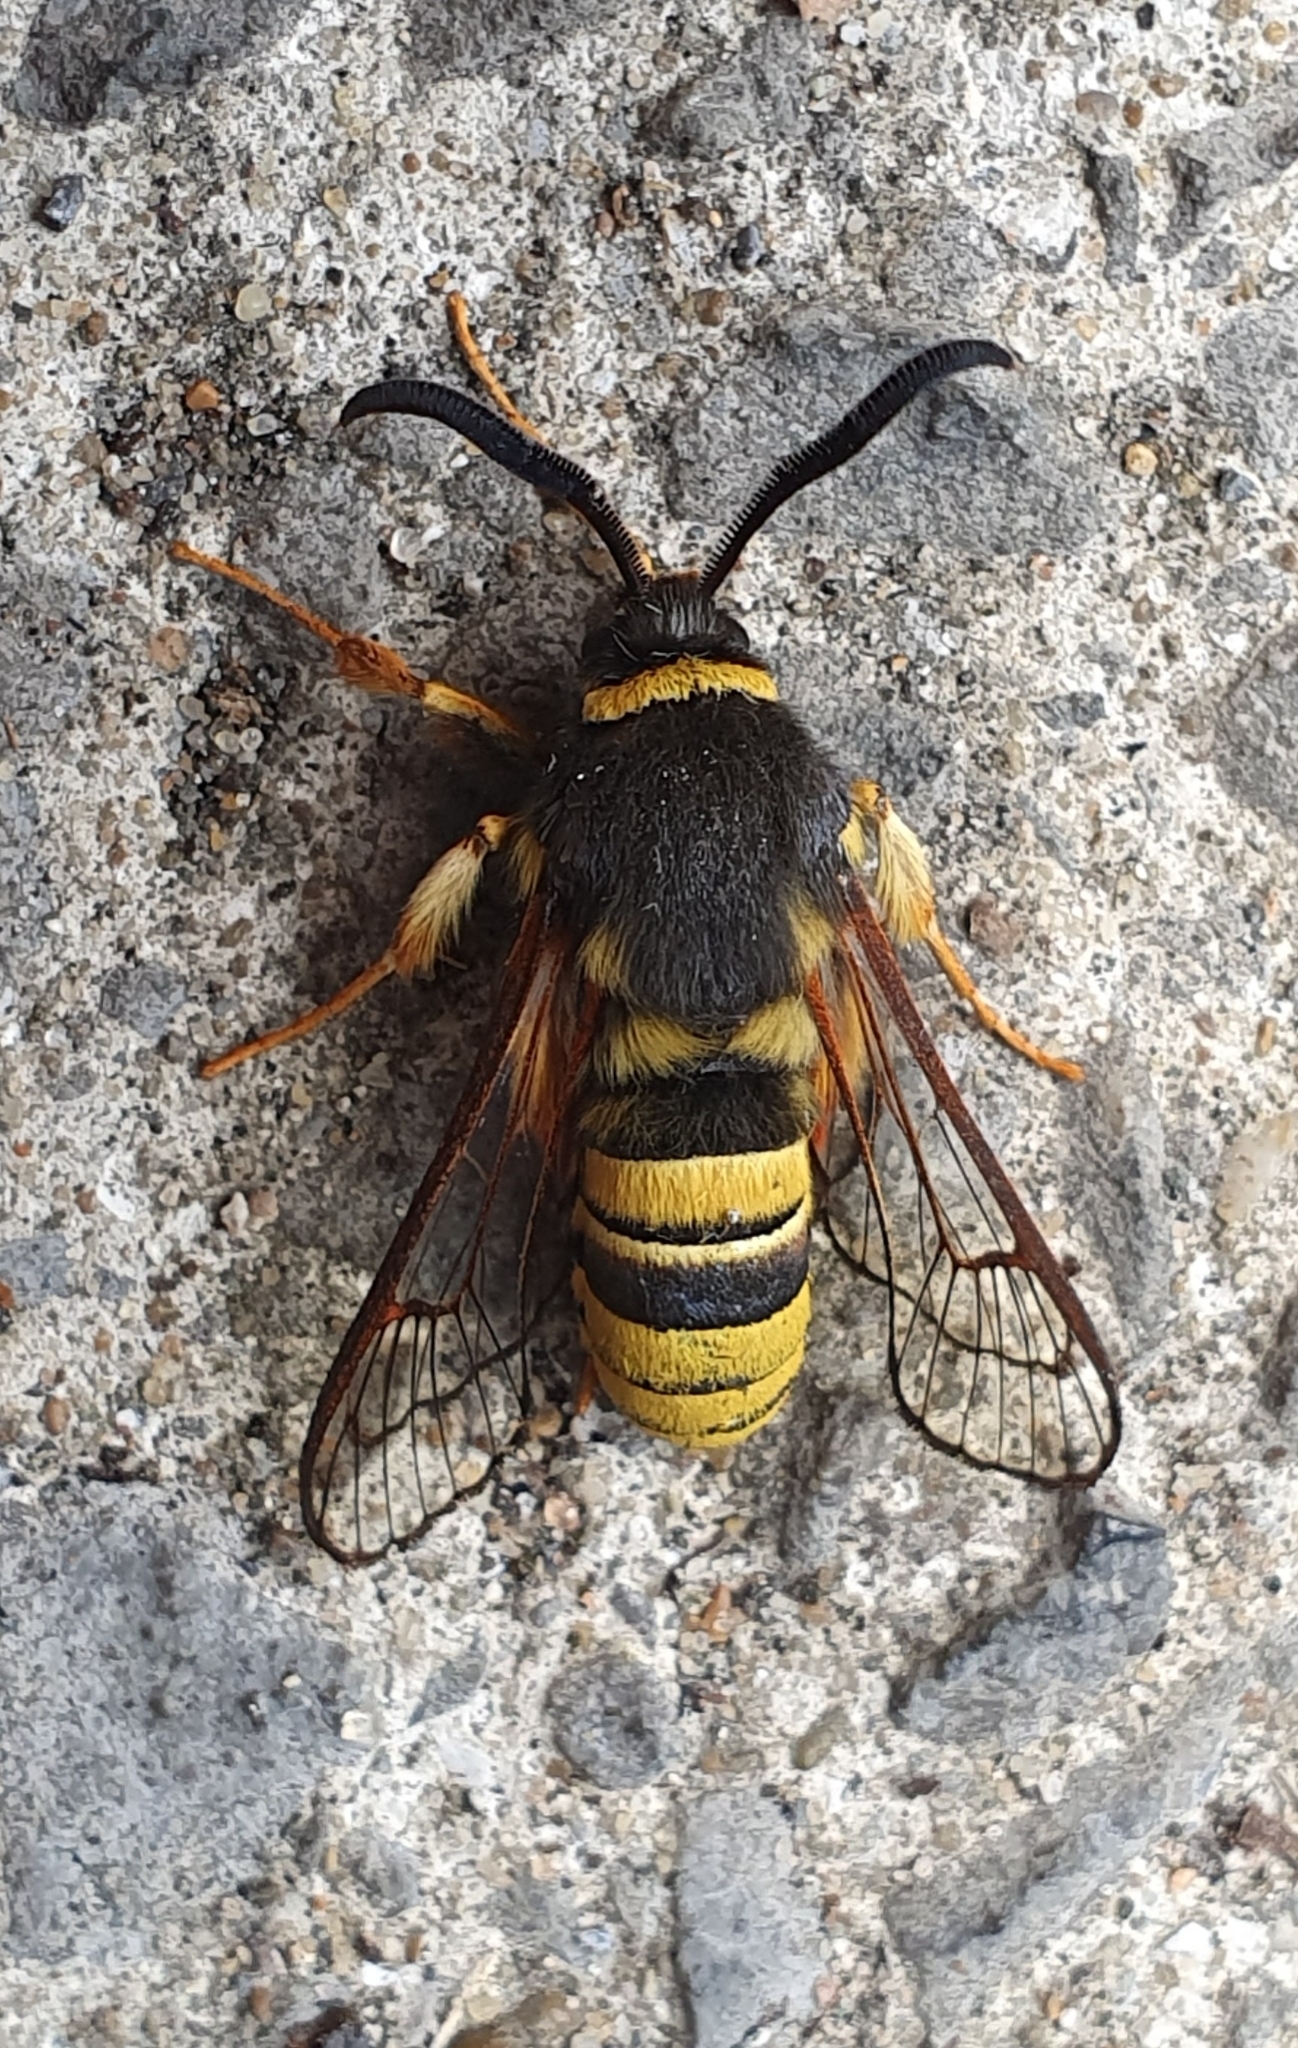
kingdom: Animalia
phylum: Arthropoda
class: Insecta
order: Lepidoptera
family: Sesiidae
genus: Sesia
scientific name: Sesia bembeciformis
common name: Lunar hornet moth
